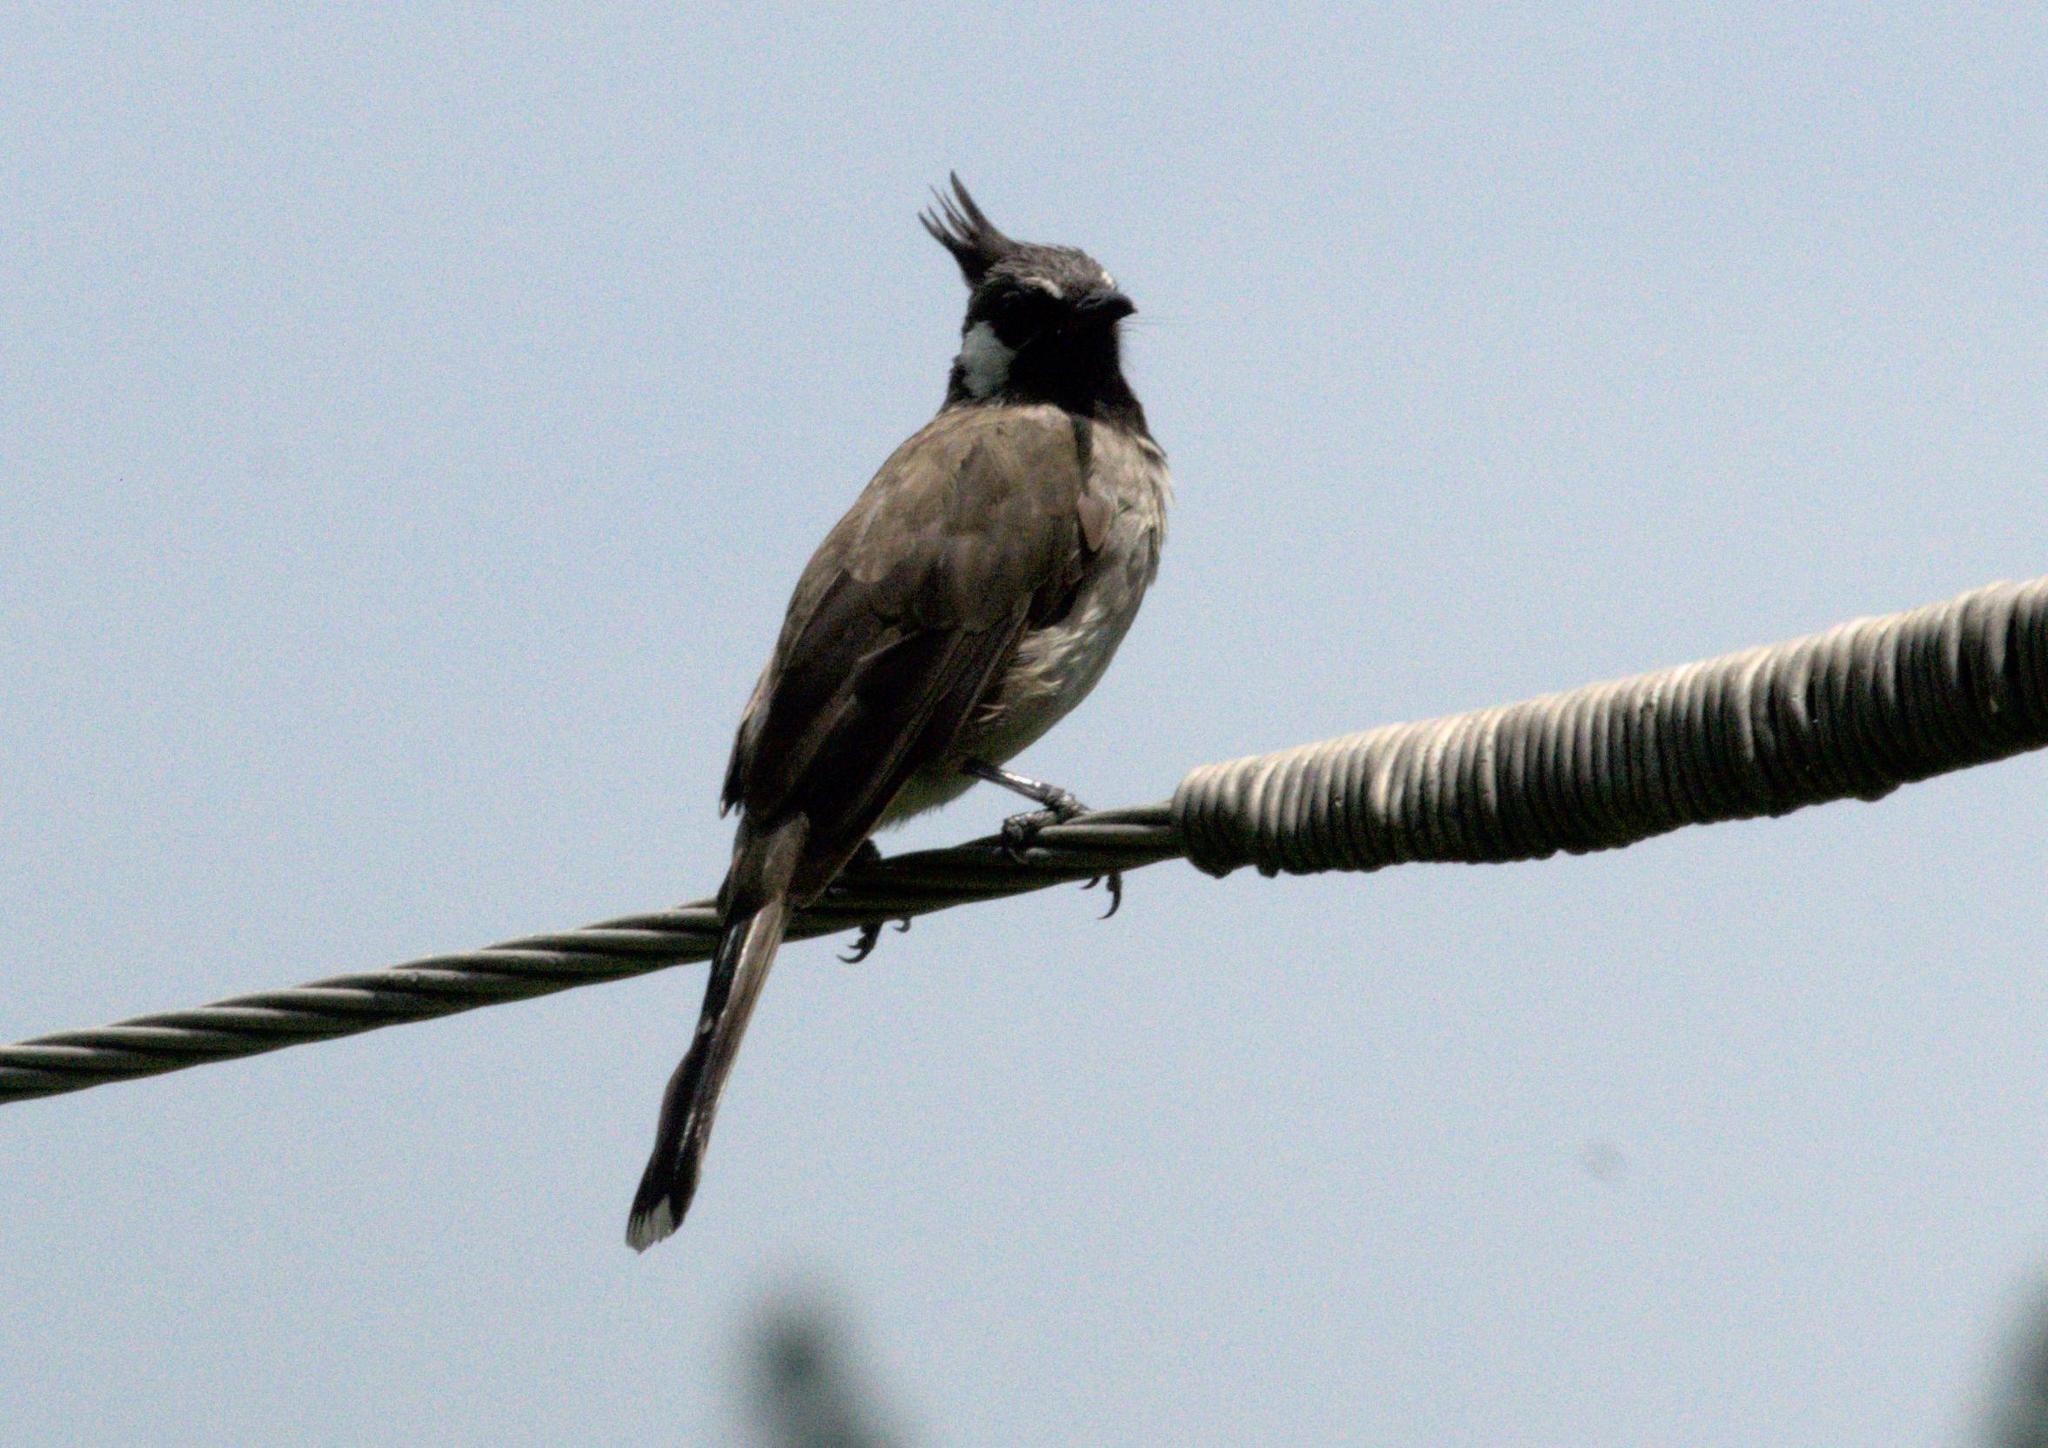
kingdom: Animalia
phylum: Chordata
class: Aves
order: Passeriformes
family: Pycnonotidae
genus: Pycnonotus
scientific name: Pycnonotus leucogenys
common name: Himalayan bulbul
